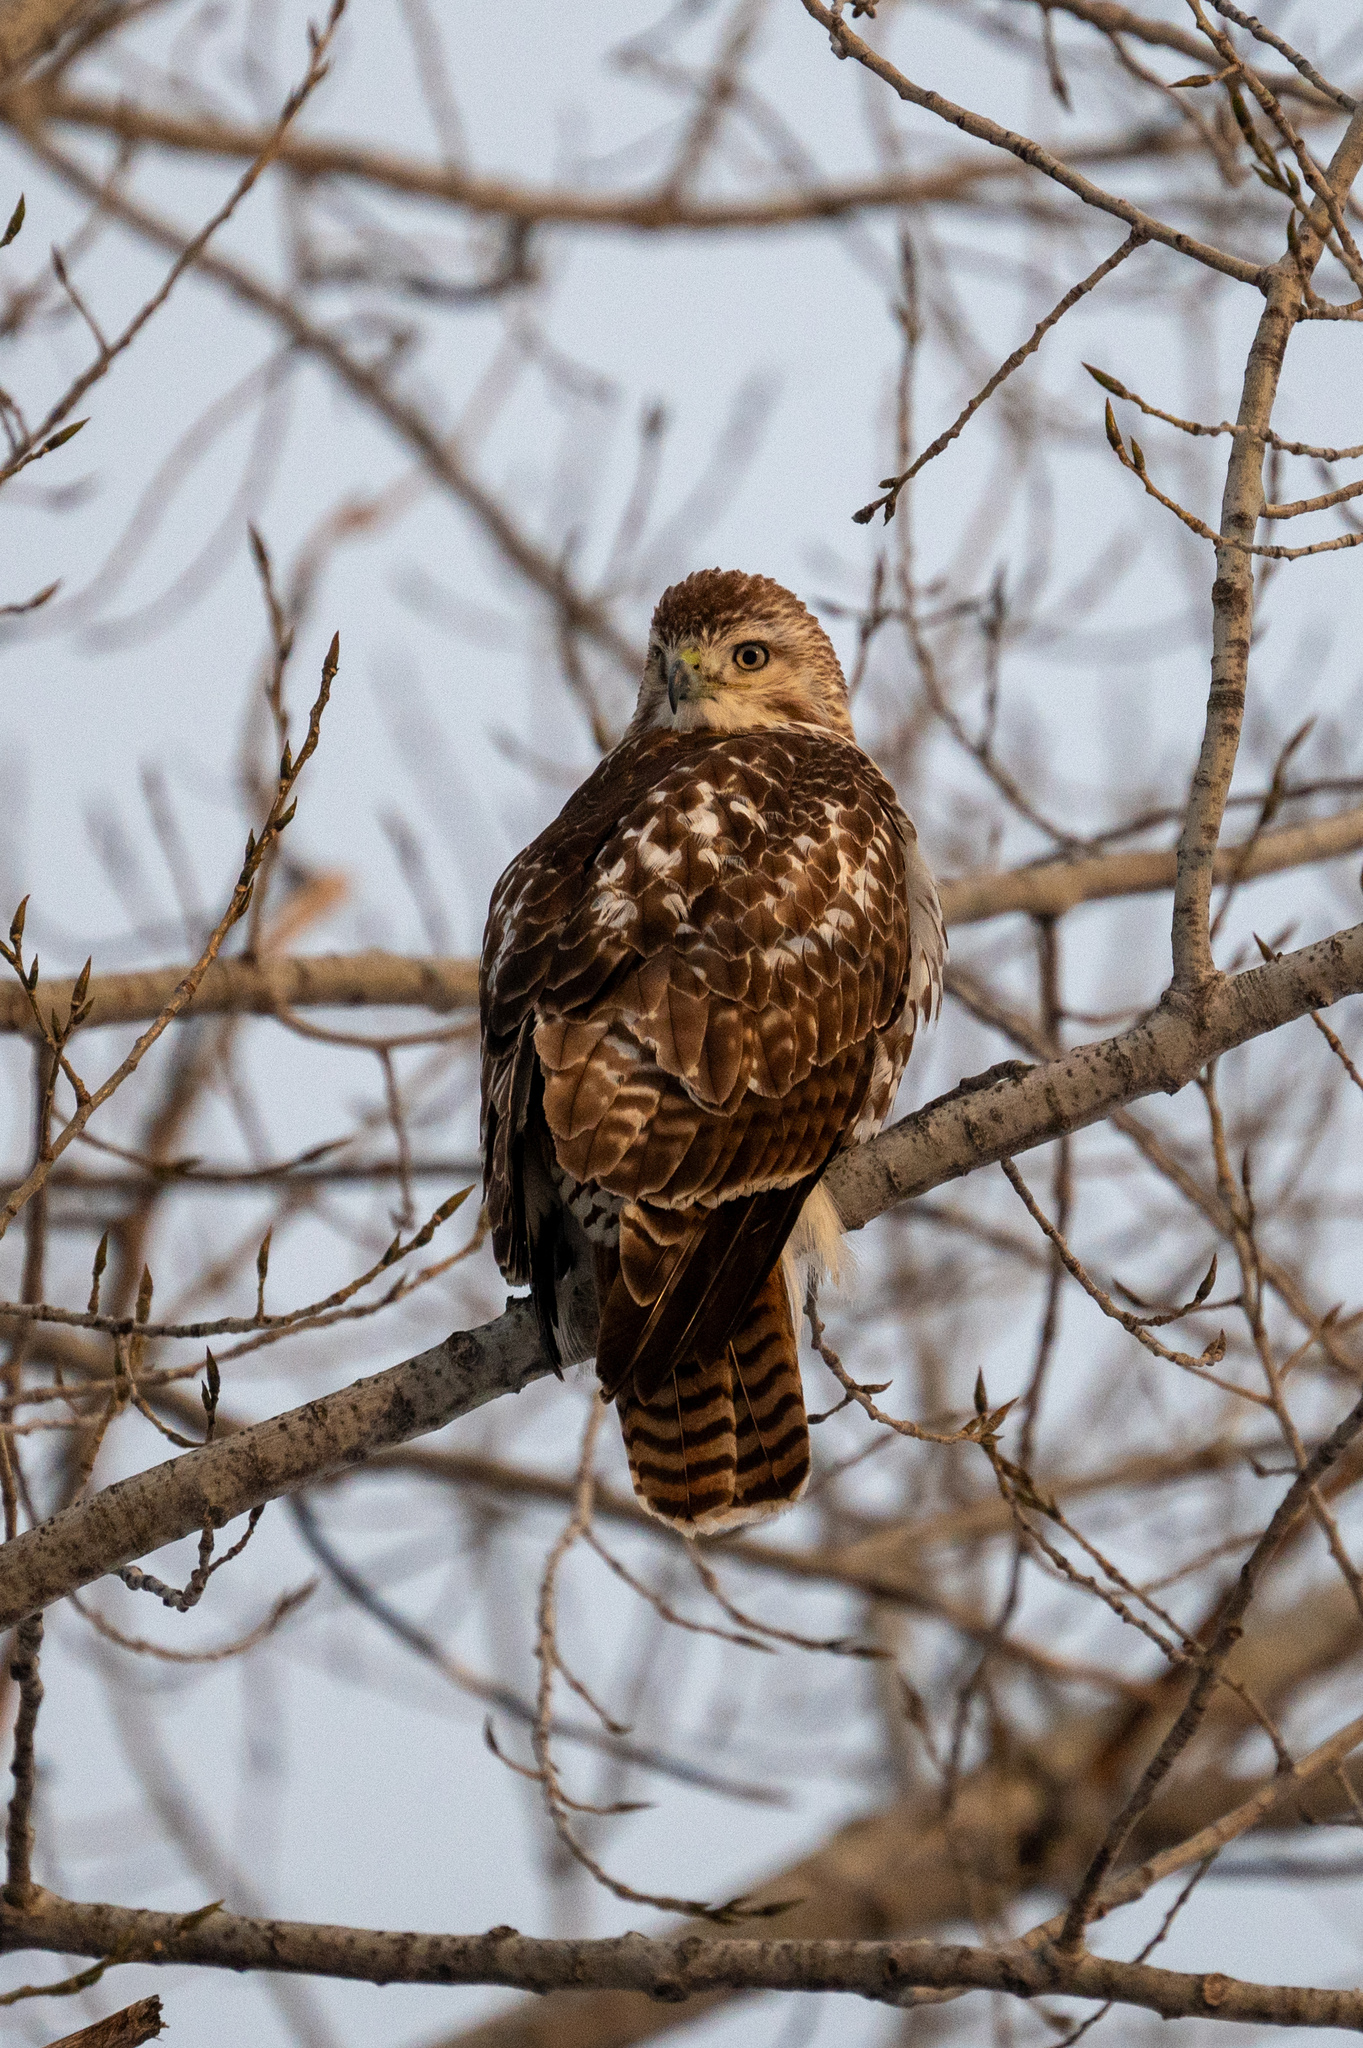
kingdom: Animalia
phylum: Chordata
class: Aves
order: Accipitriformes
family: Accipitridae
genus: Buteo
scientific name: Buteo jamaicensis
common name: Red-tailed hawk
